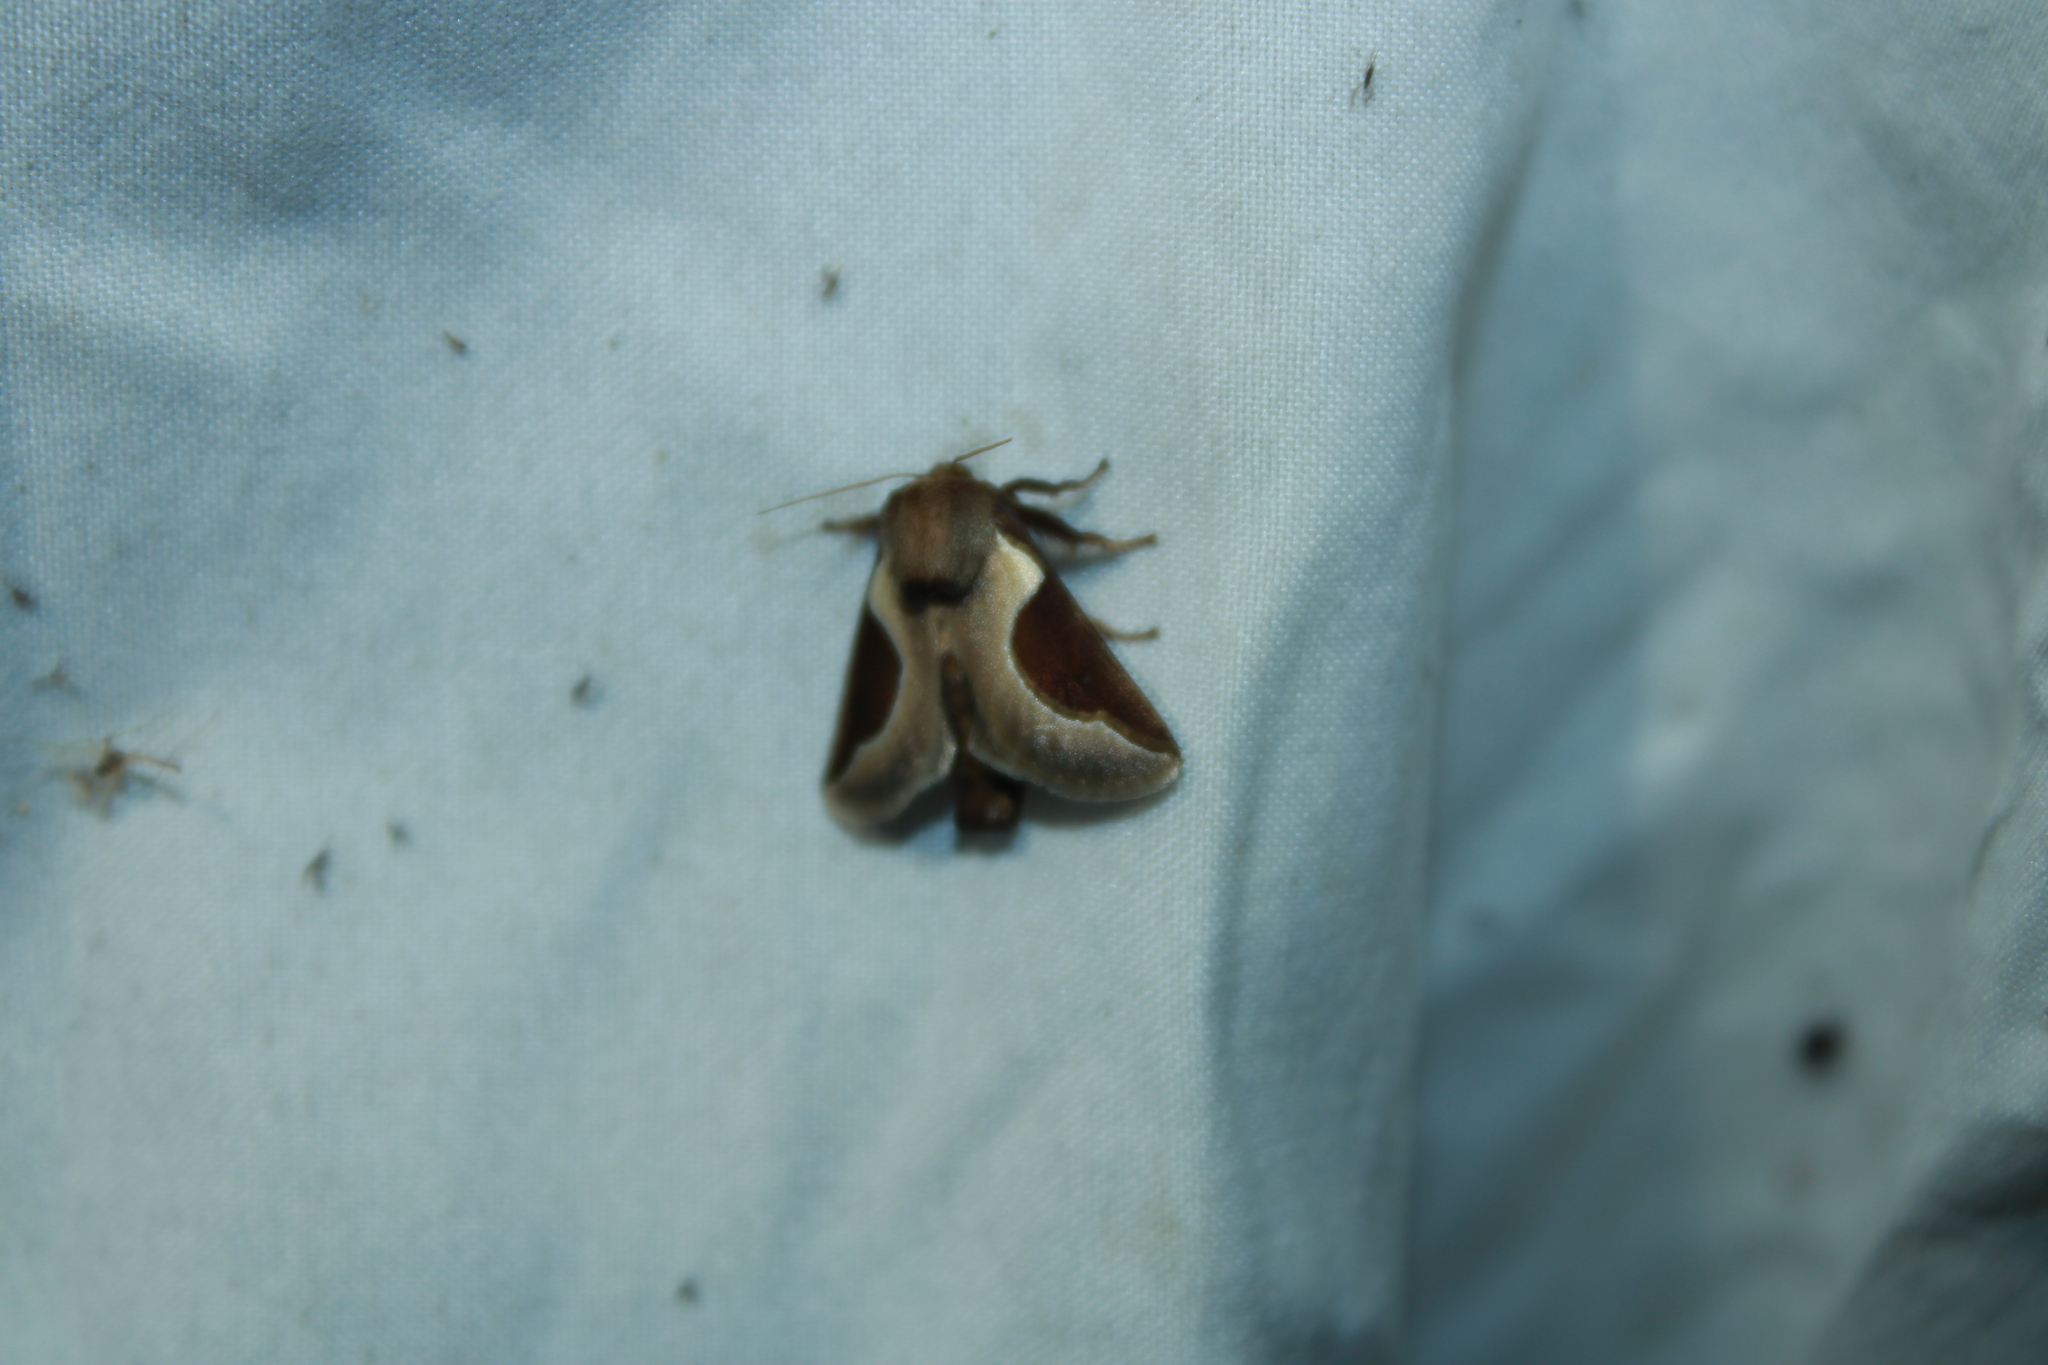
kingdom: Animalia
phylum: Arthropoda
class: Insecta
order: Lepidoptera
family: Limacodidae
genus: Prolimacodes
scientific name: Prolimacodes badia
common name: Skiff moth
